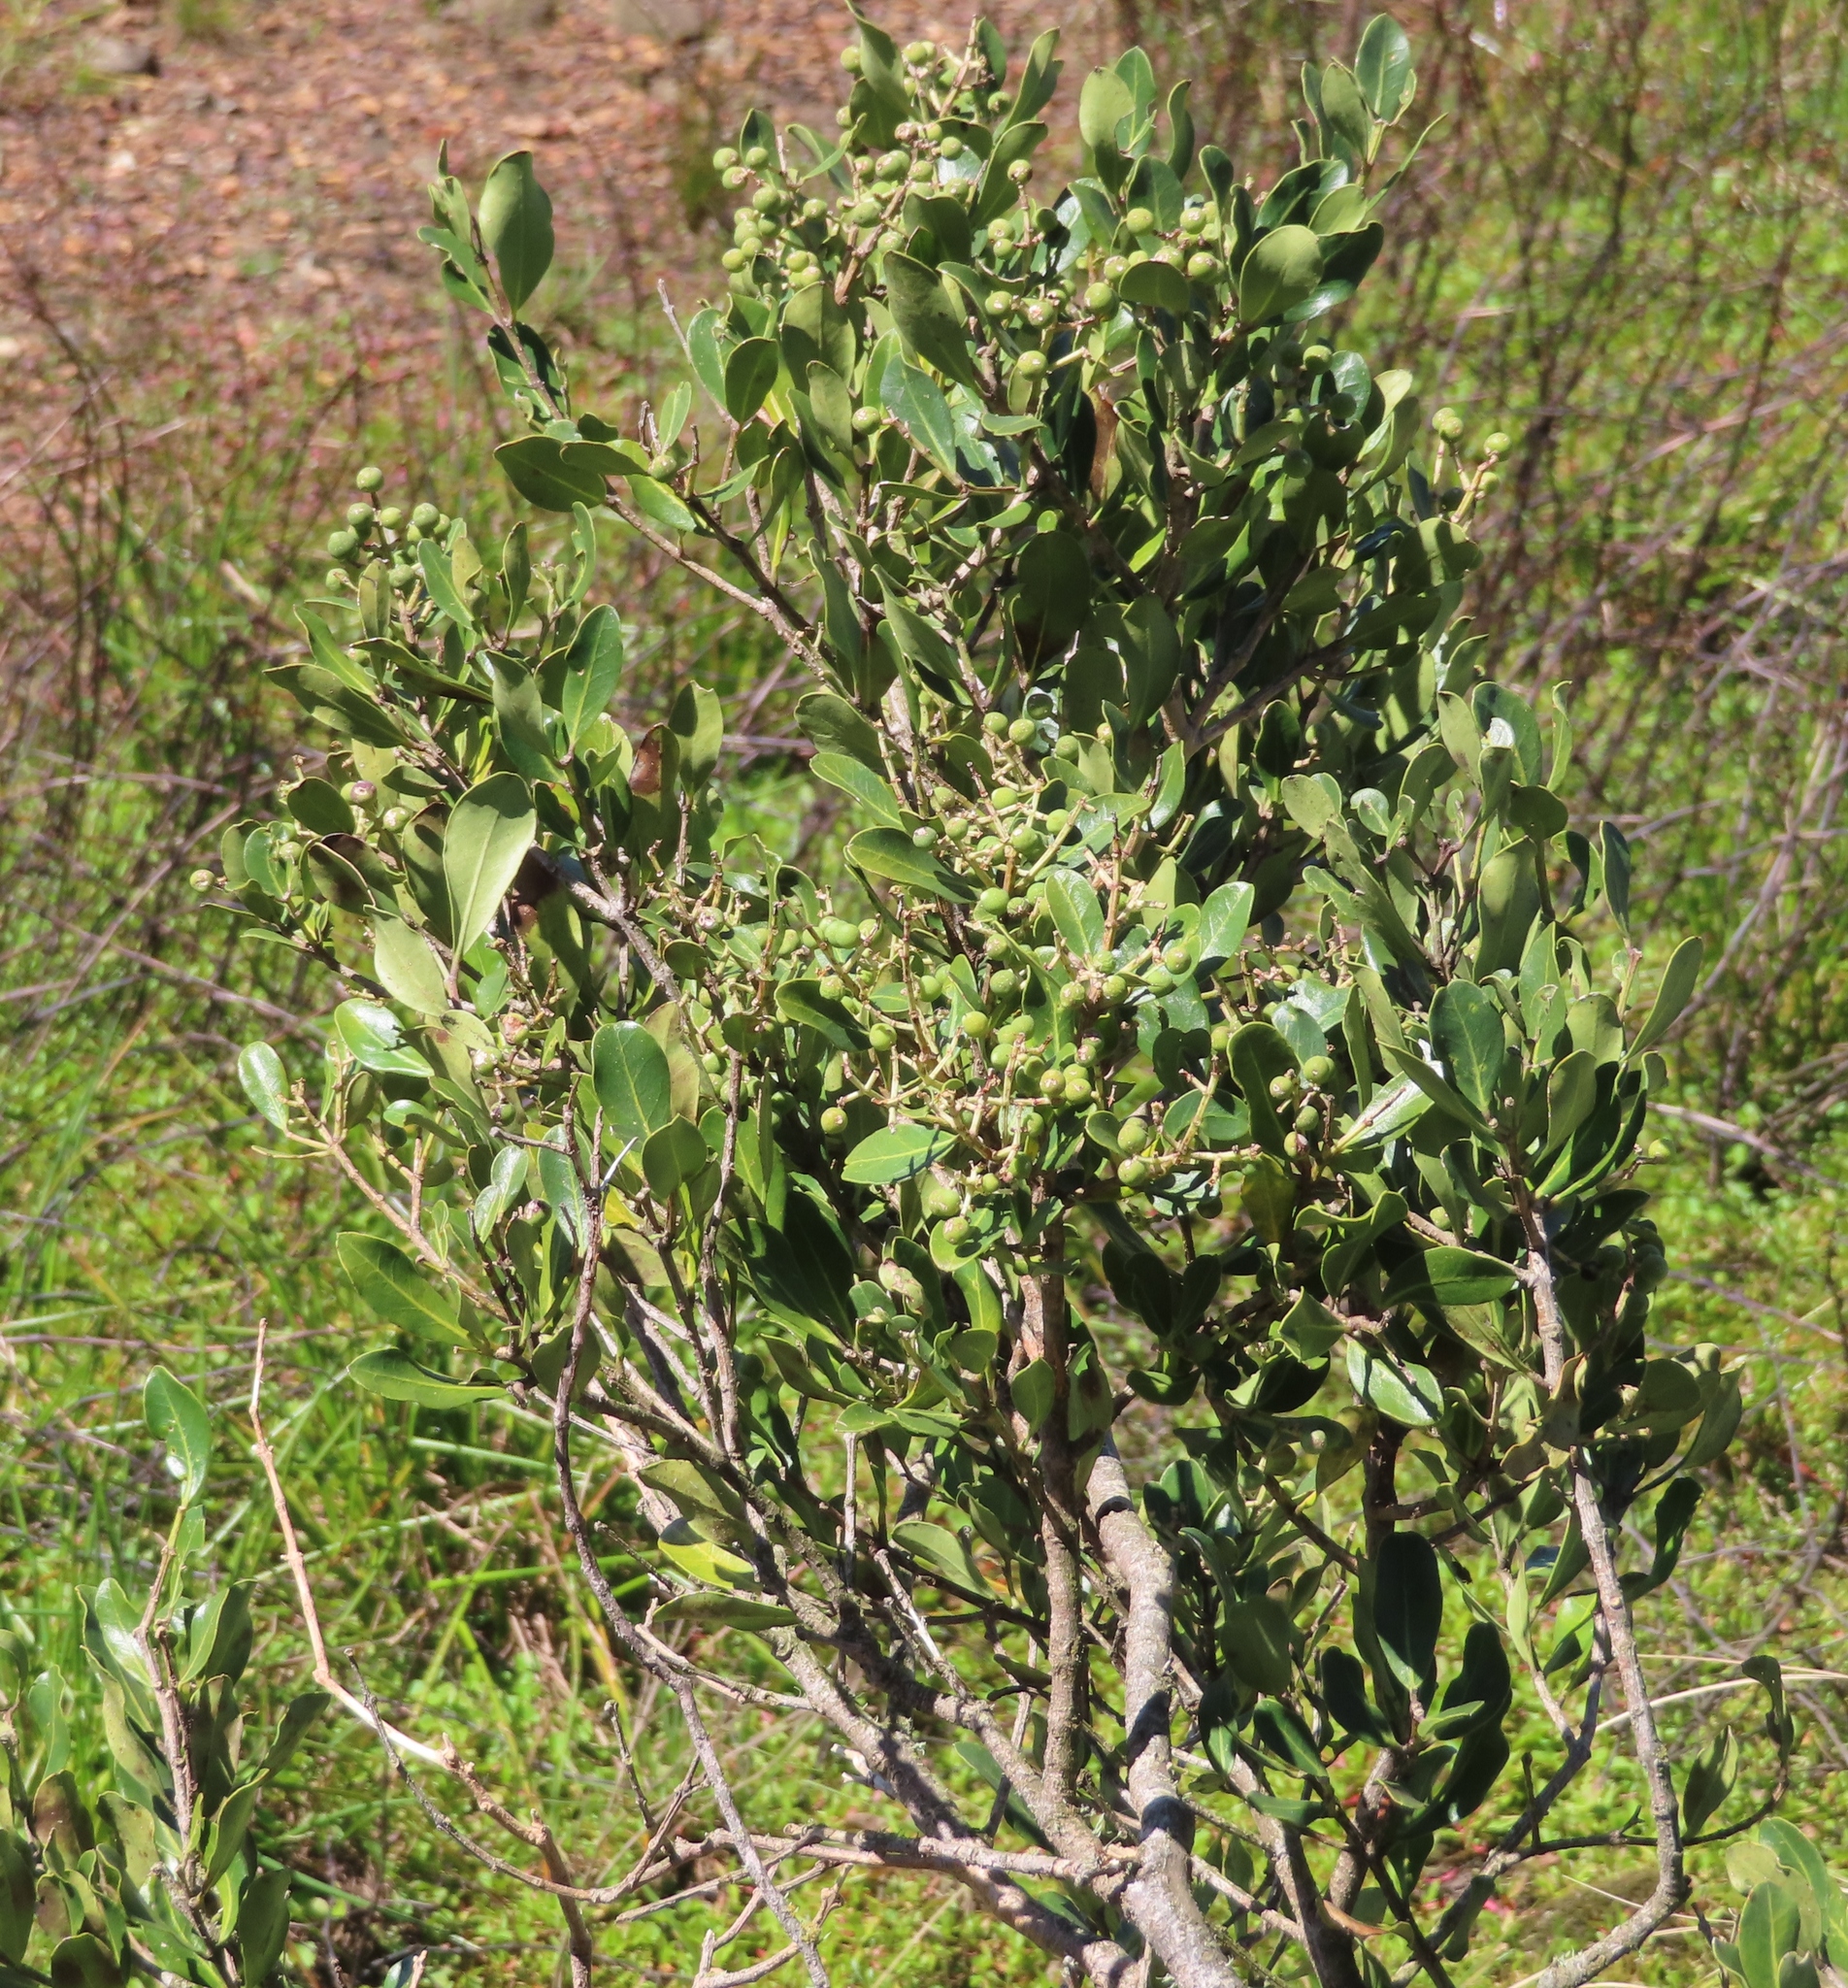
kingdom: Plantae
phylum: Tracheophyta
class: Magnoliopsida
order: Lamiales
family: Oleaceae
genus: Olea
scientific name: Olea capensis
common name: Black ironwood
